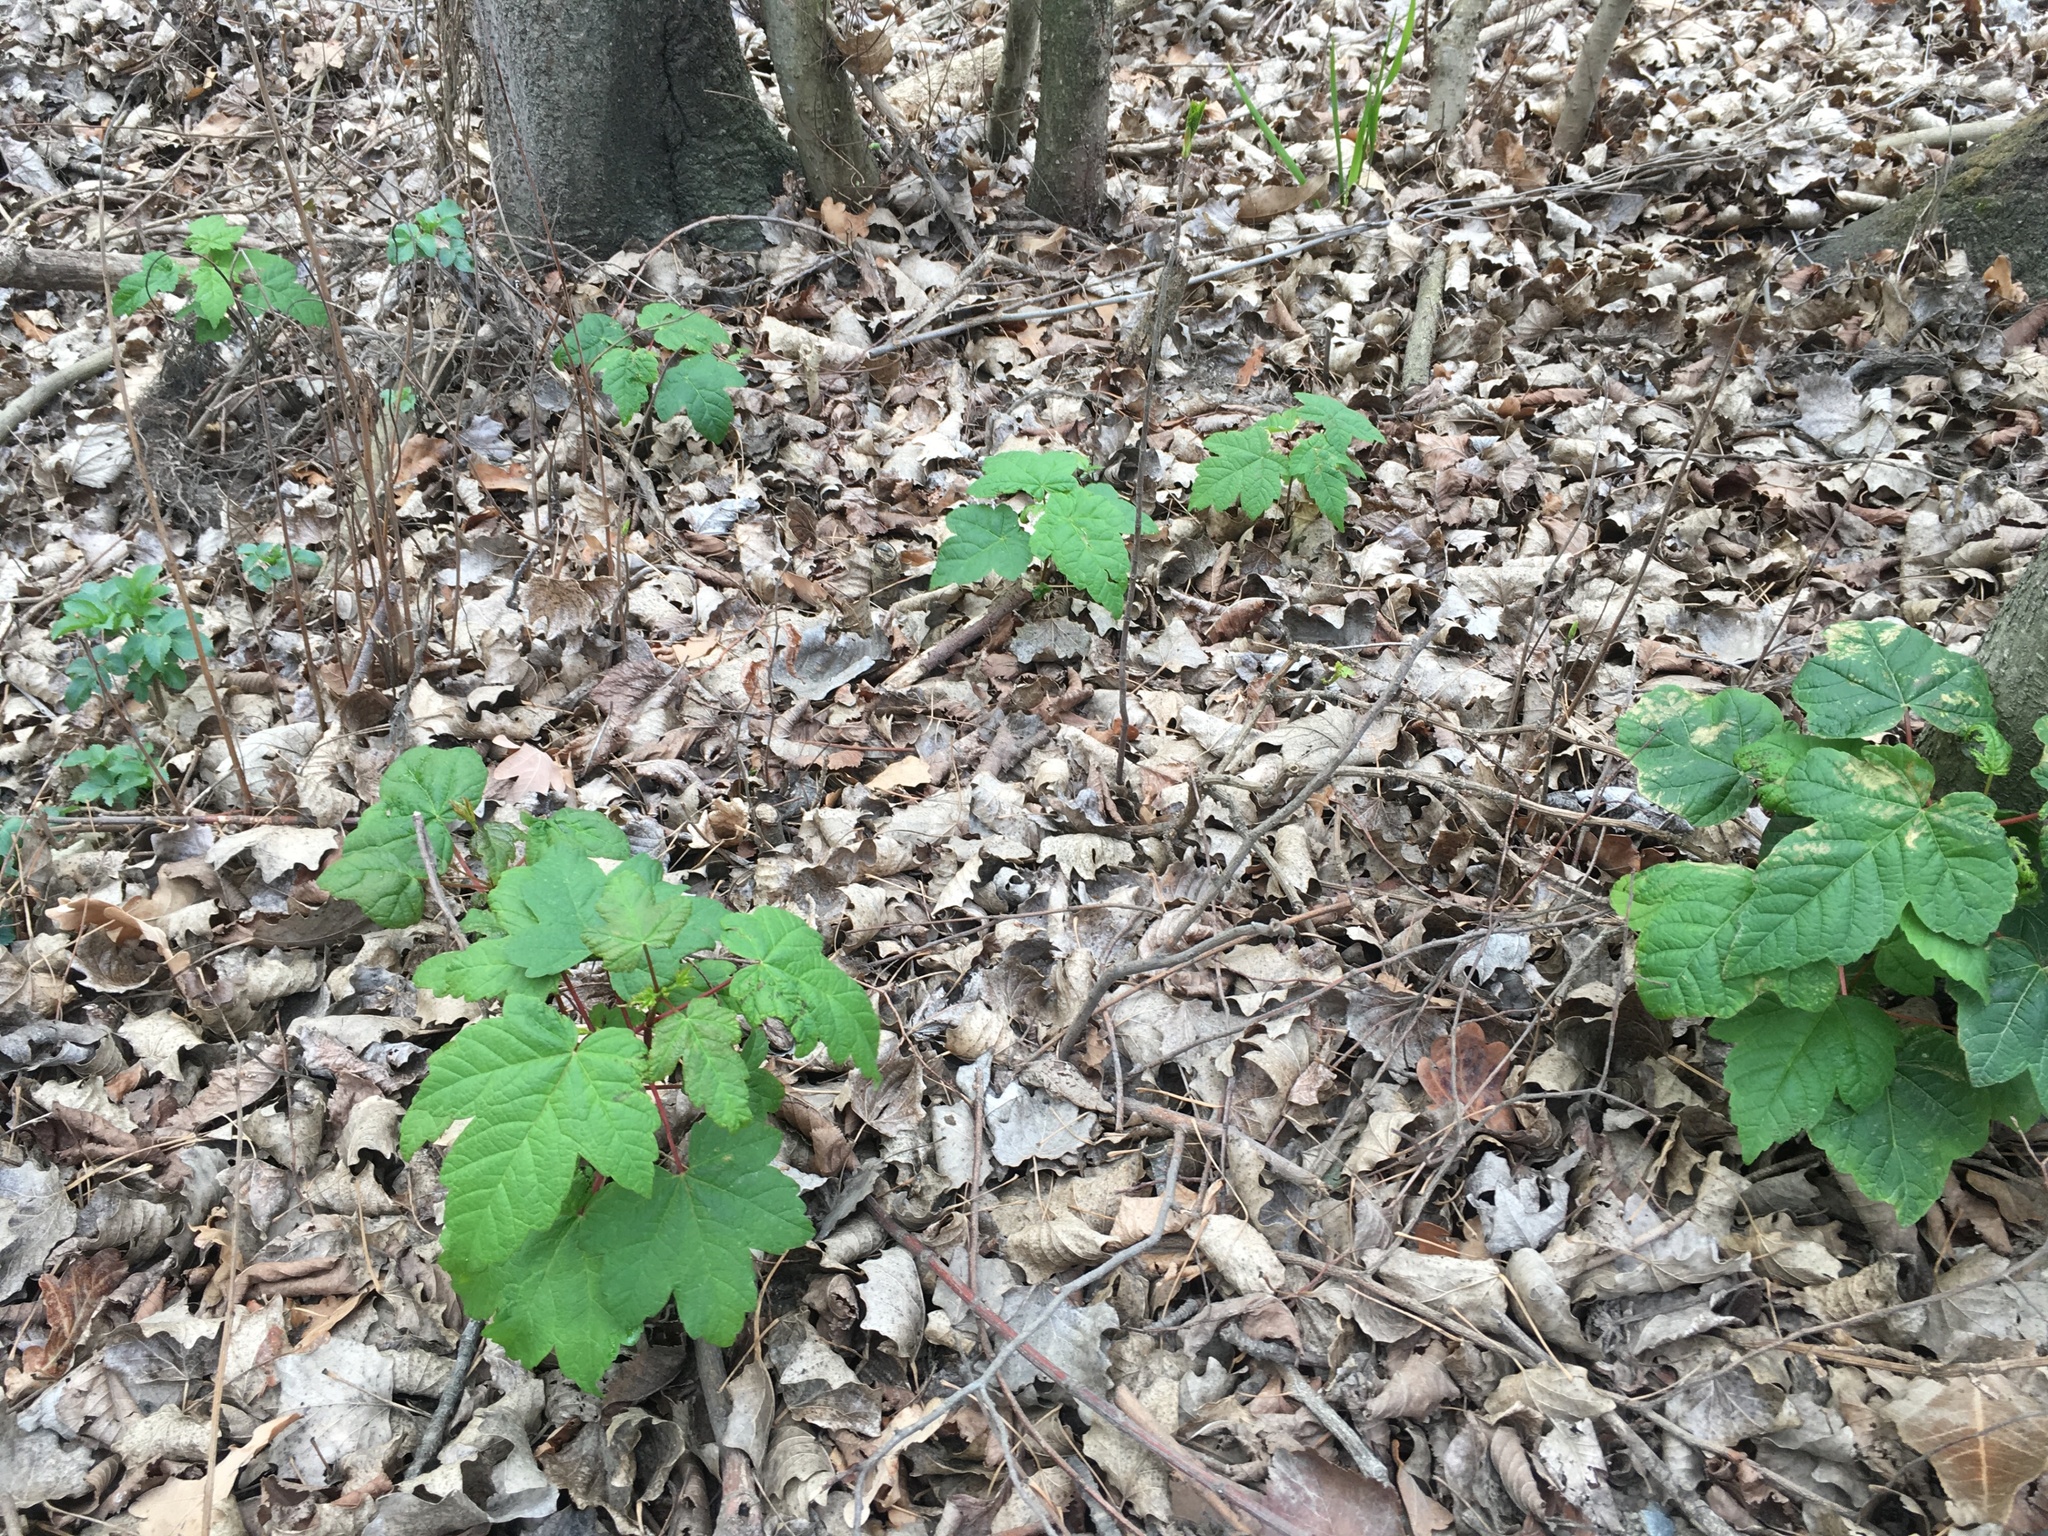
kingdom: Plantae
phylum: Tracheophyta
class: Magnoliopsida
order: Sapindales
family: Sapindaceae
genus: Acer
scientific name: Acer pseudoplatanus
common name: Sycamore
